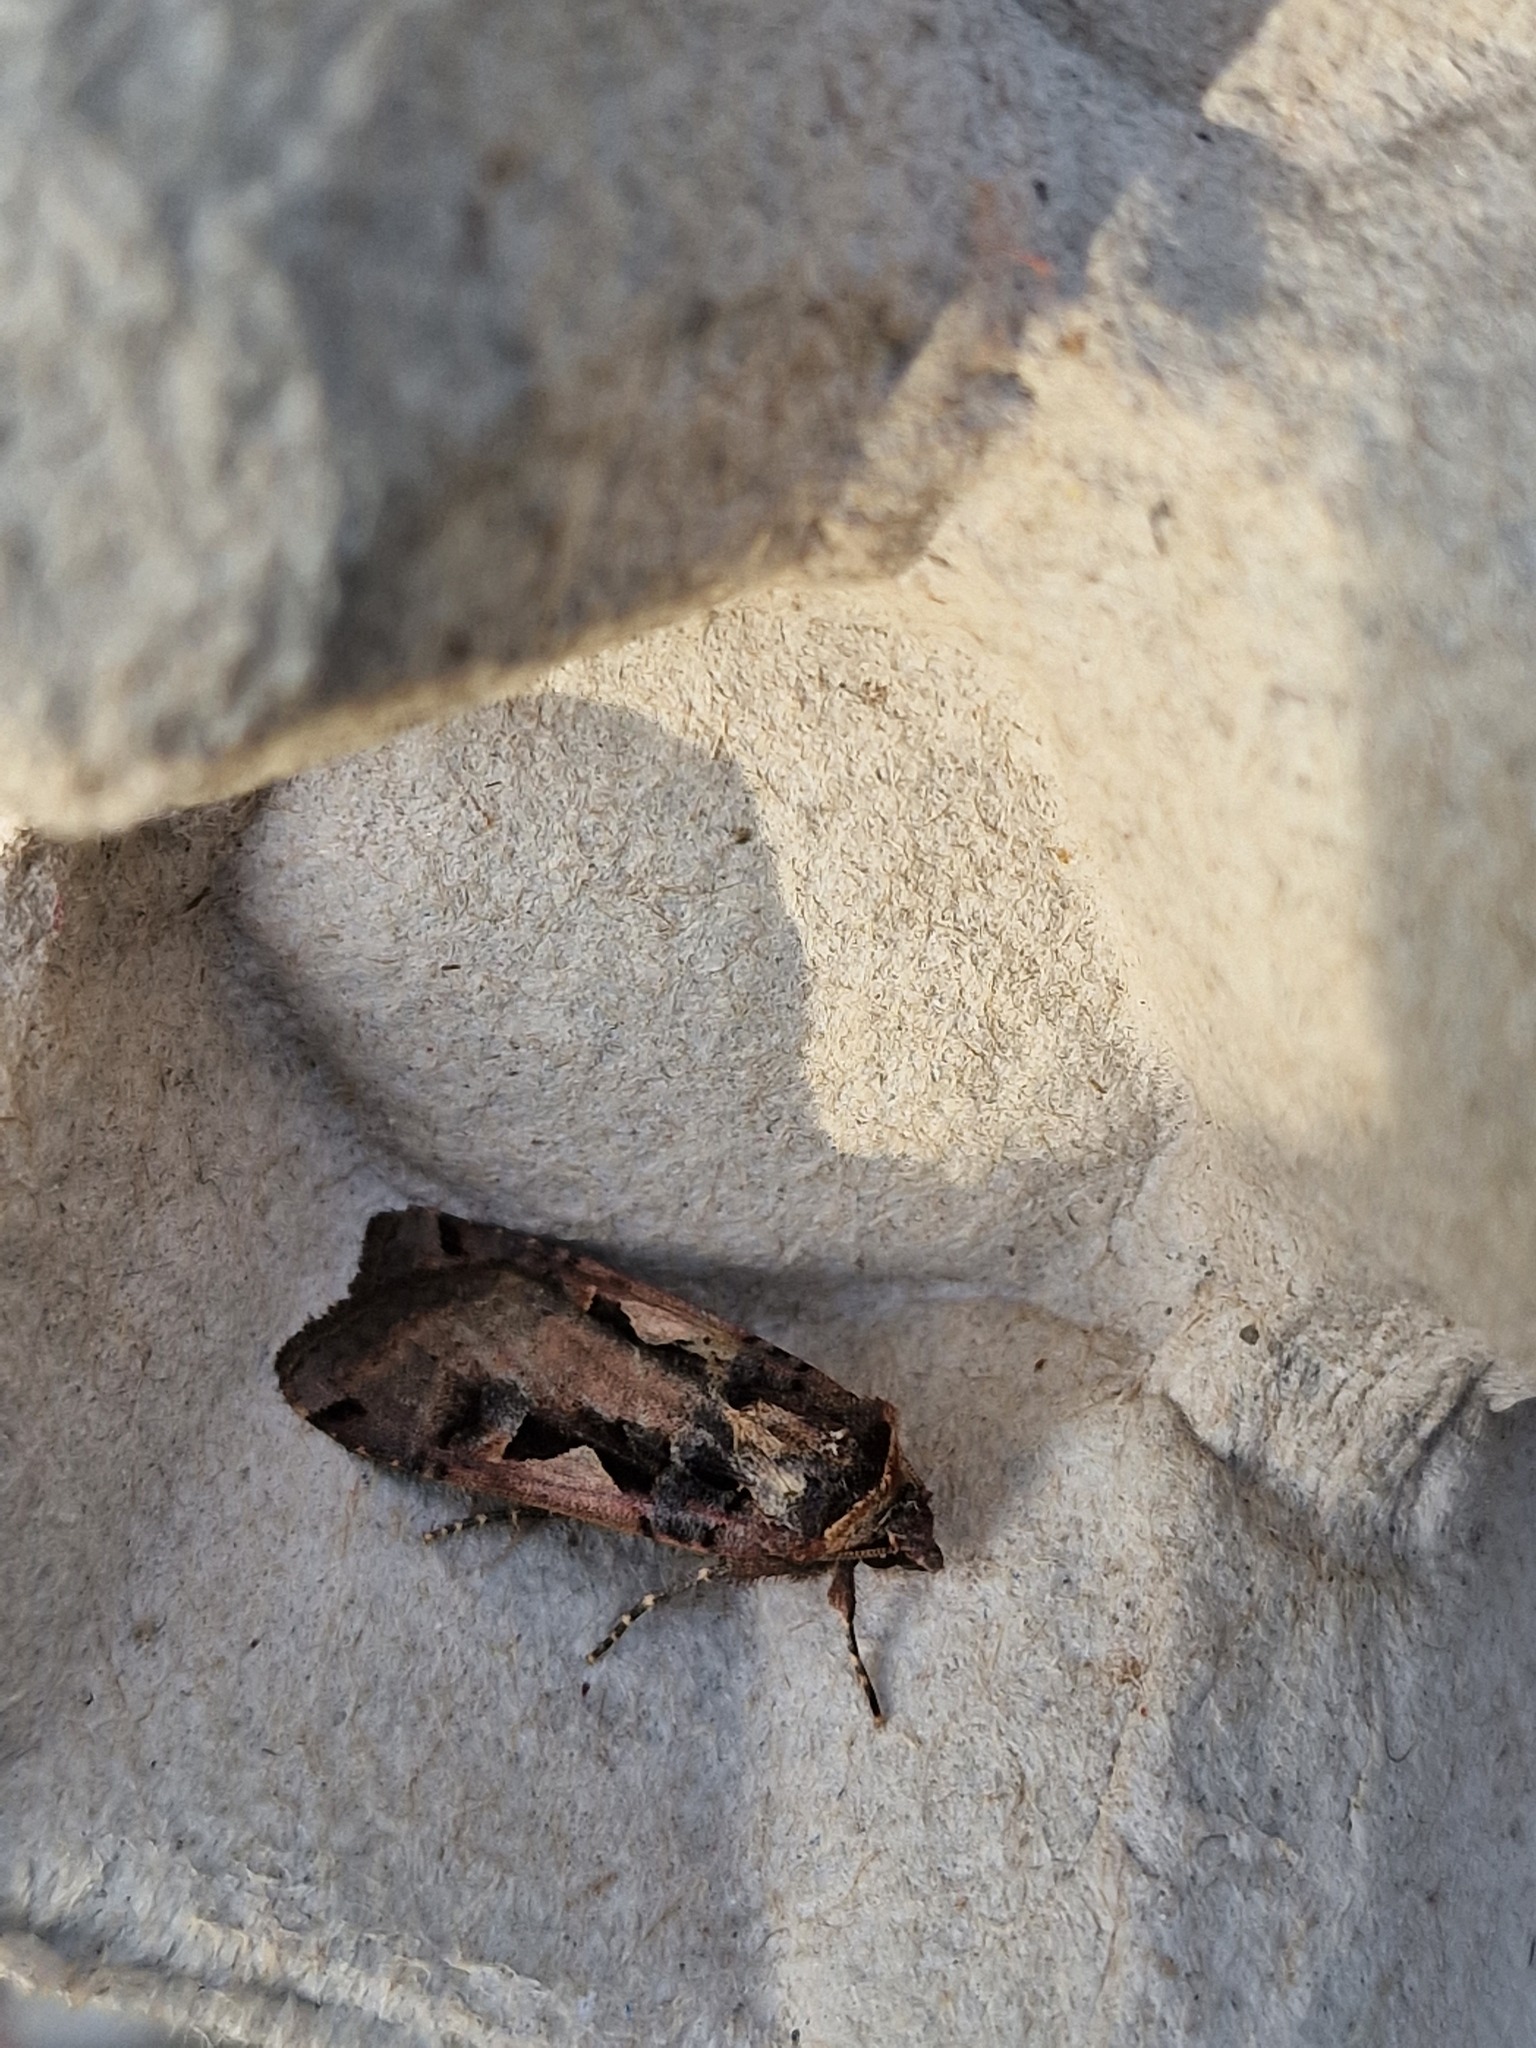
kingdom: Animalia
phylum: Arthropoda
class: Insecta
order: Lepidoptera
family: Noctuidae
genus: Xestia
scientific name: Xestia c-nigrum
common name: Setaceous hebrew character
